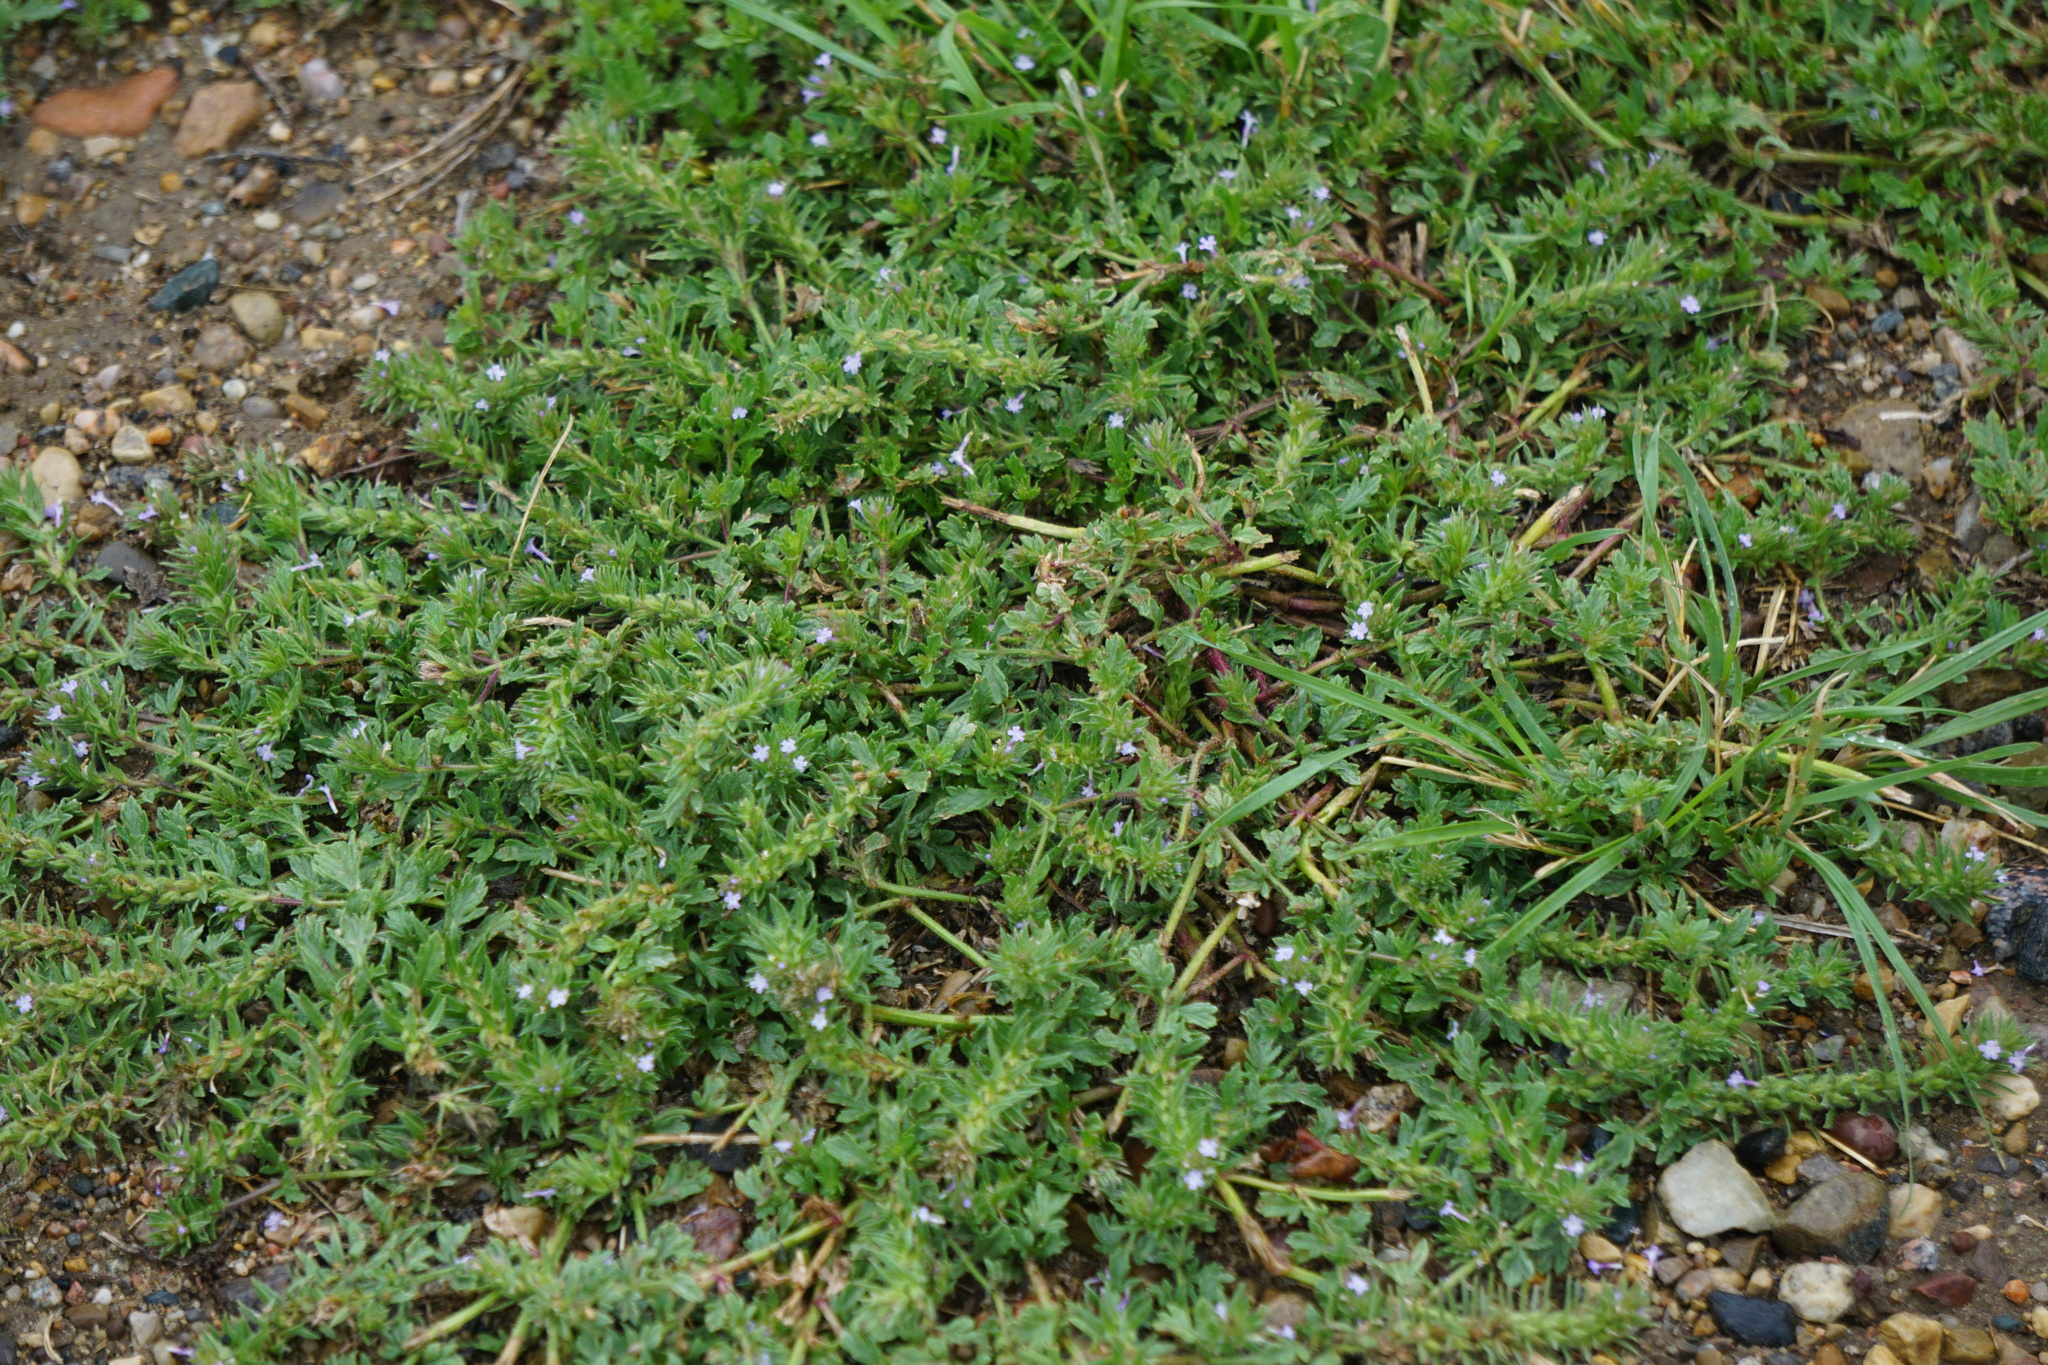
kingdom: Plantae
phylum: Tracheophyta
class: Magnoliopsida
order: Lamiales
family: Verbenaceae
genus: Verbena
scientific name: Verbena bracteata
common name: Bracted vervain
